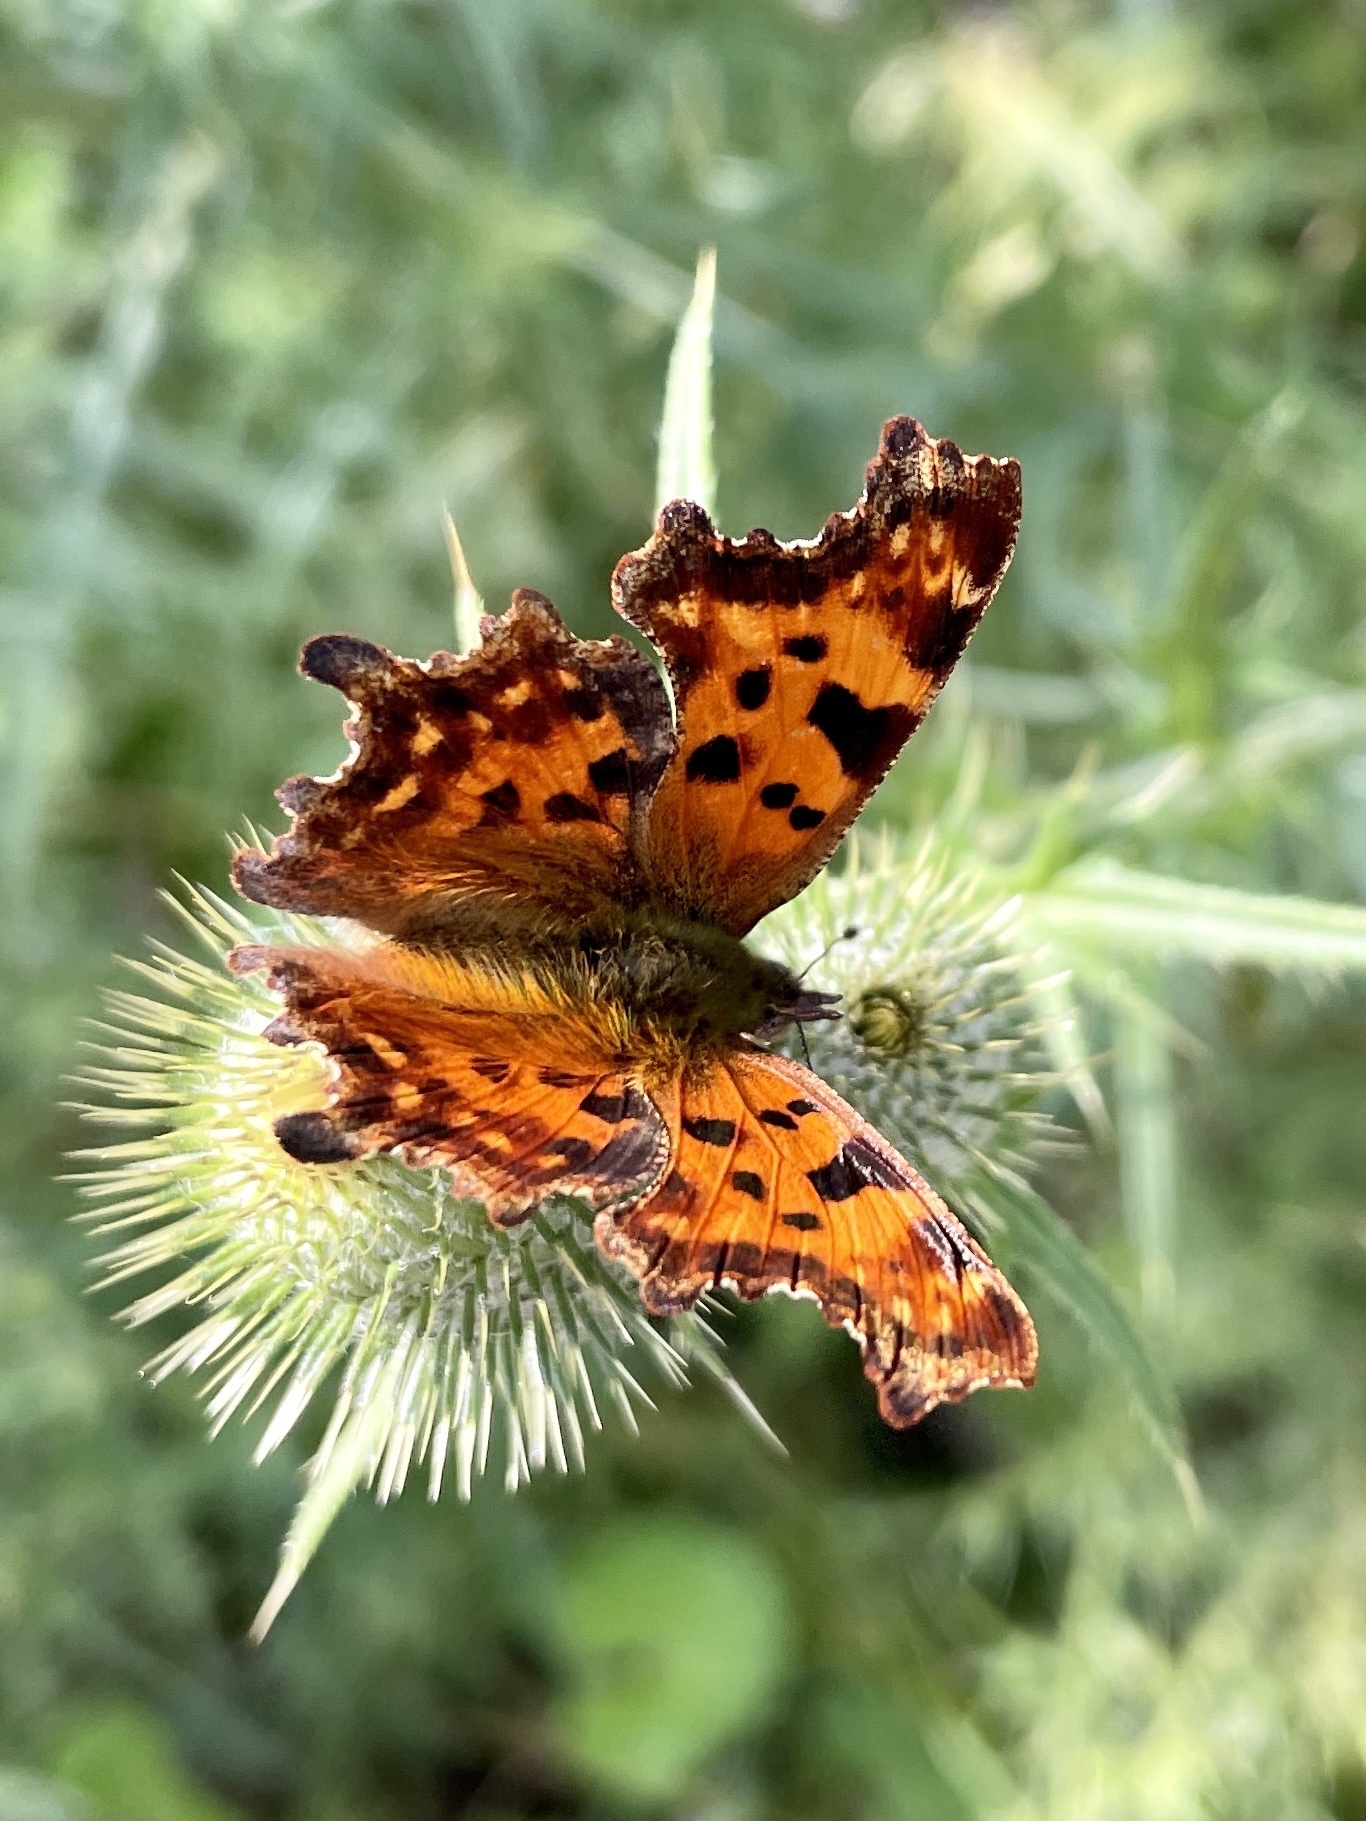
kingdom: Animalia
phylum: Arthropoda
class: Insecta
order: Lepidoptera
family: Nymphalidae
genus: Polygonia
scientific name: Polygonia c-album
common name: Comma
